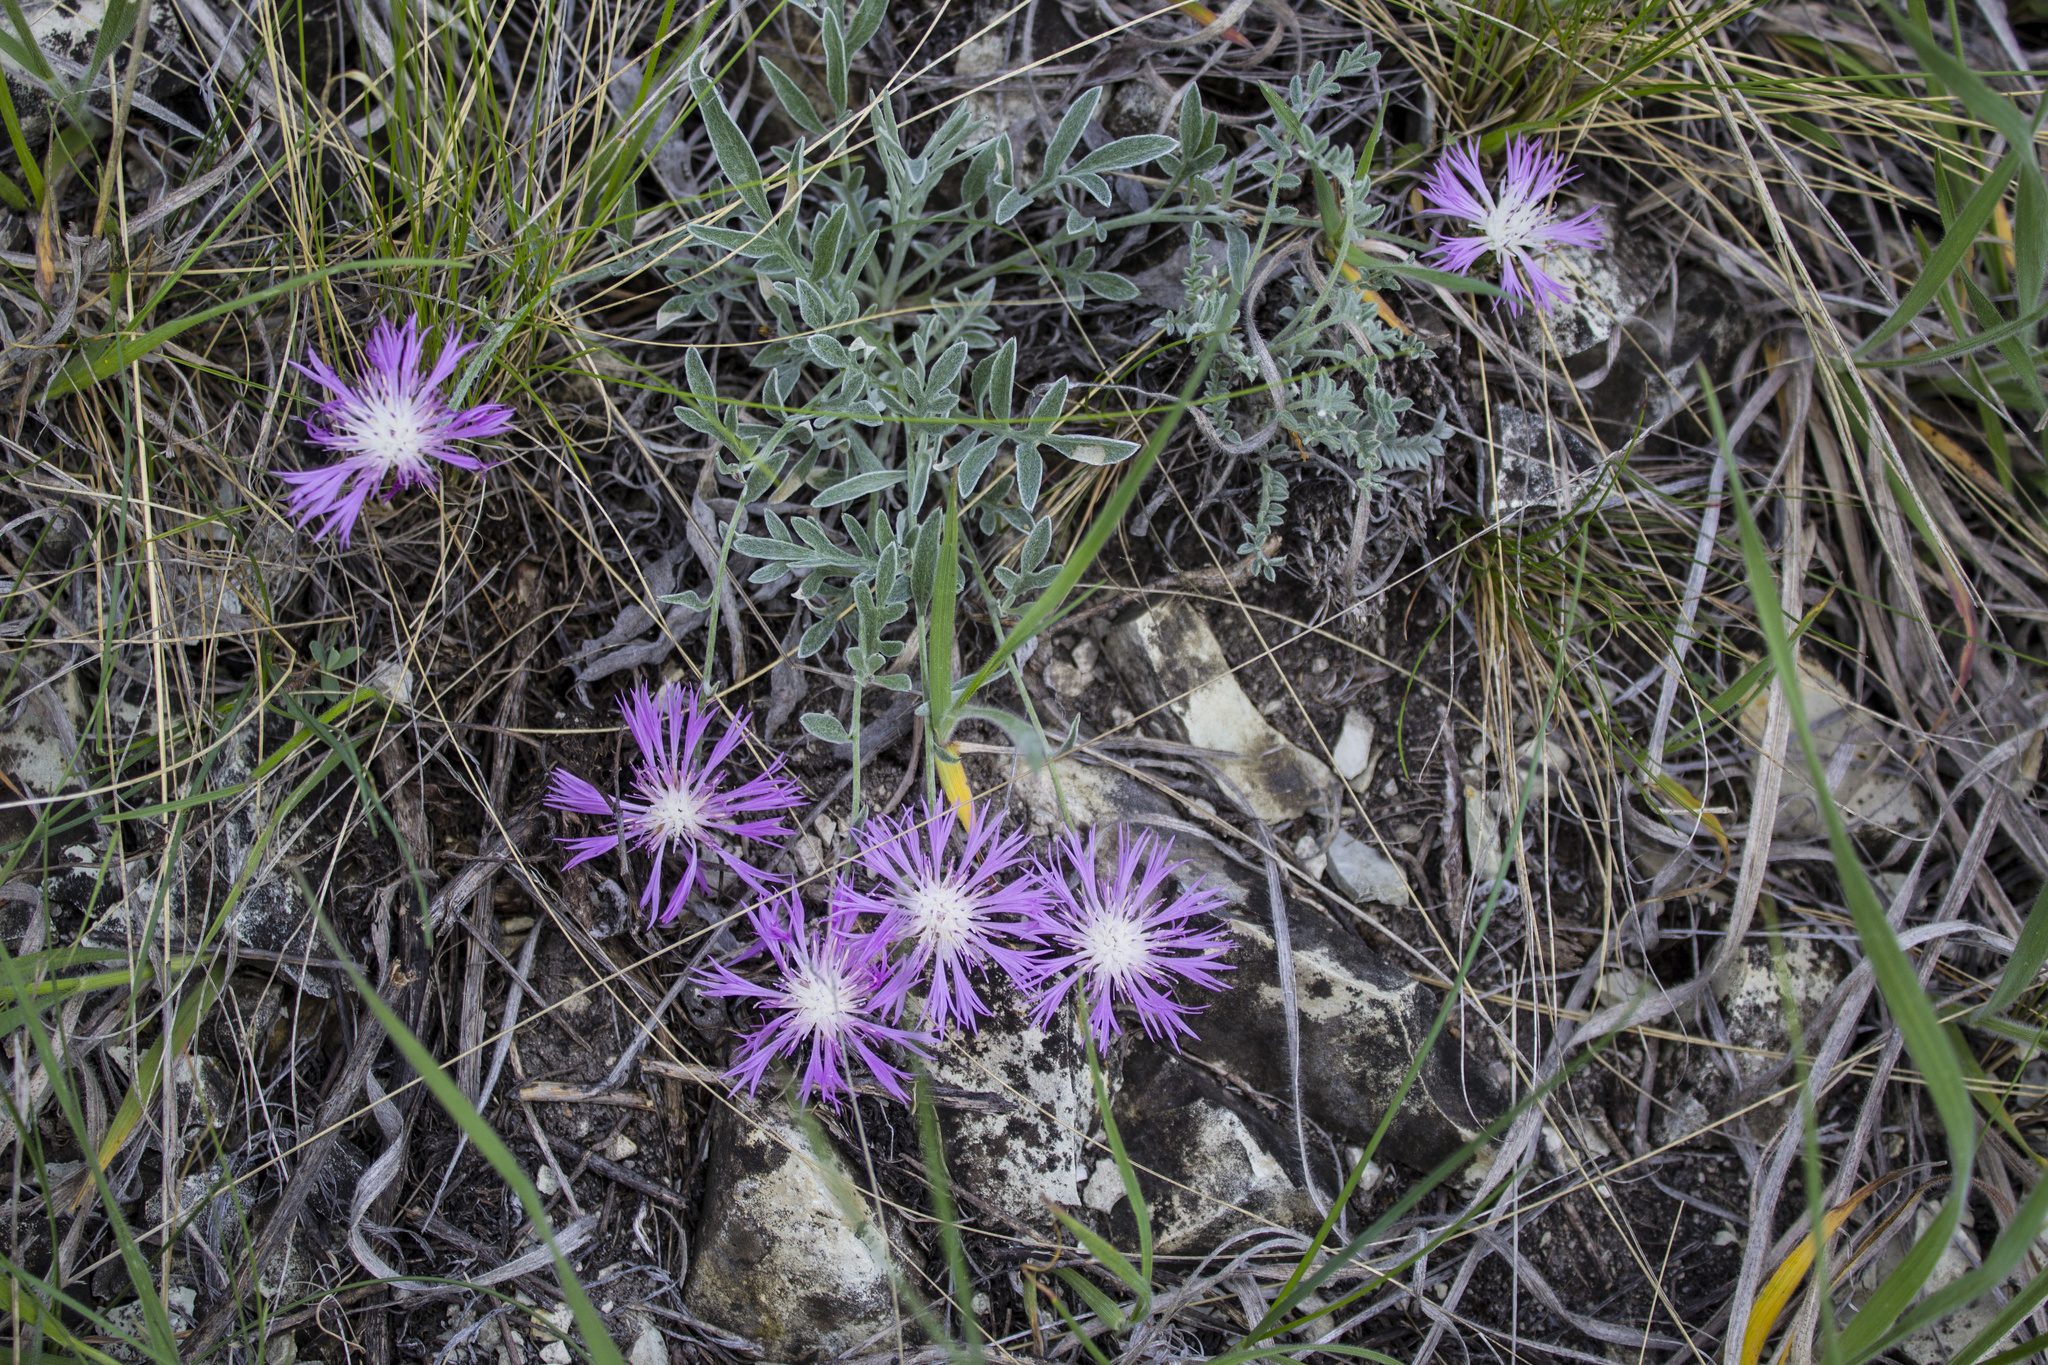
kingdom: Plantae
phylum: Tracheophyta
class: Magnoliopsida
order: Asterales
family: Asteraceae
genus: Psephellus
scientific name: Psephellus marschallianus
